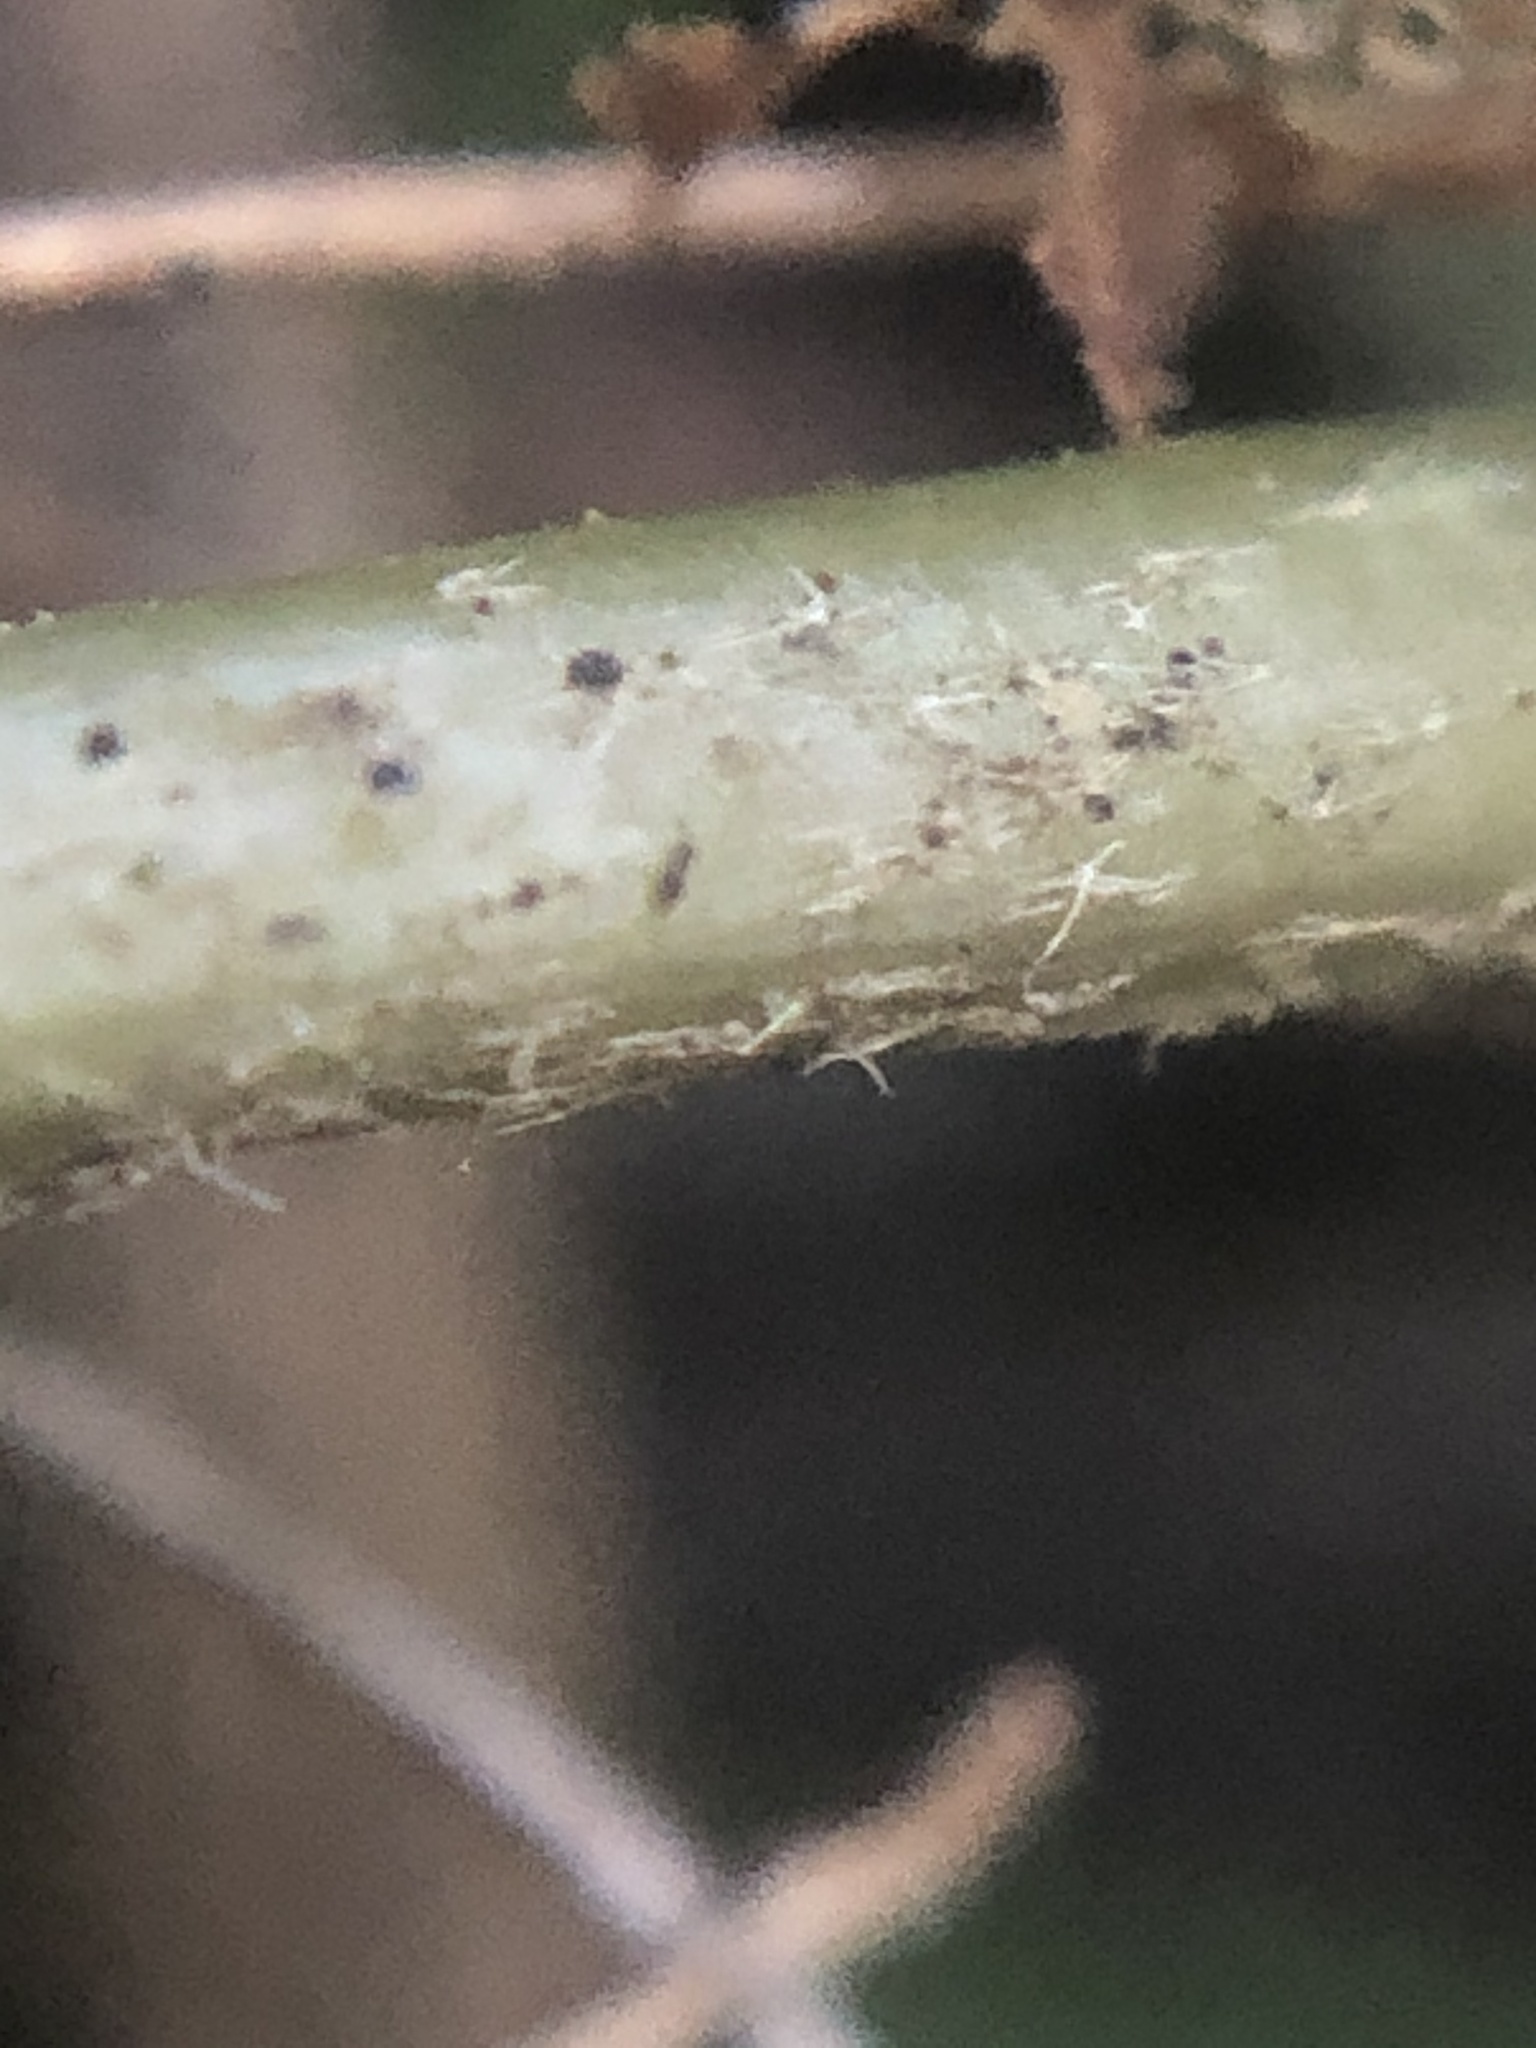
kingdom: Plantae
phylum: Tracheophyta
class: Magnoliopsida
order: Apiales
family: Araliaceae
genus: Hedera
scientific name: Hedera helix
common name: Ivy
